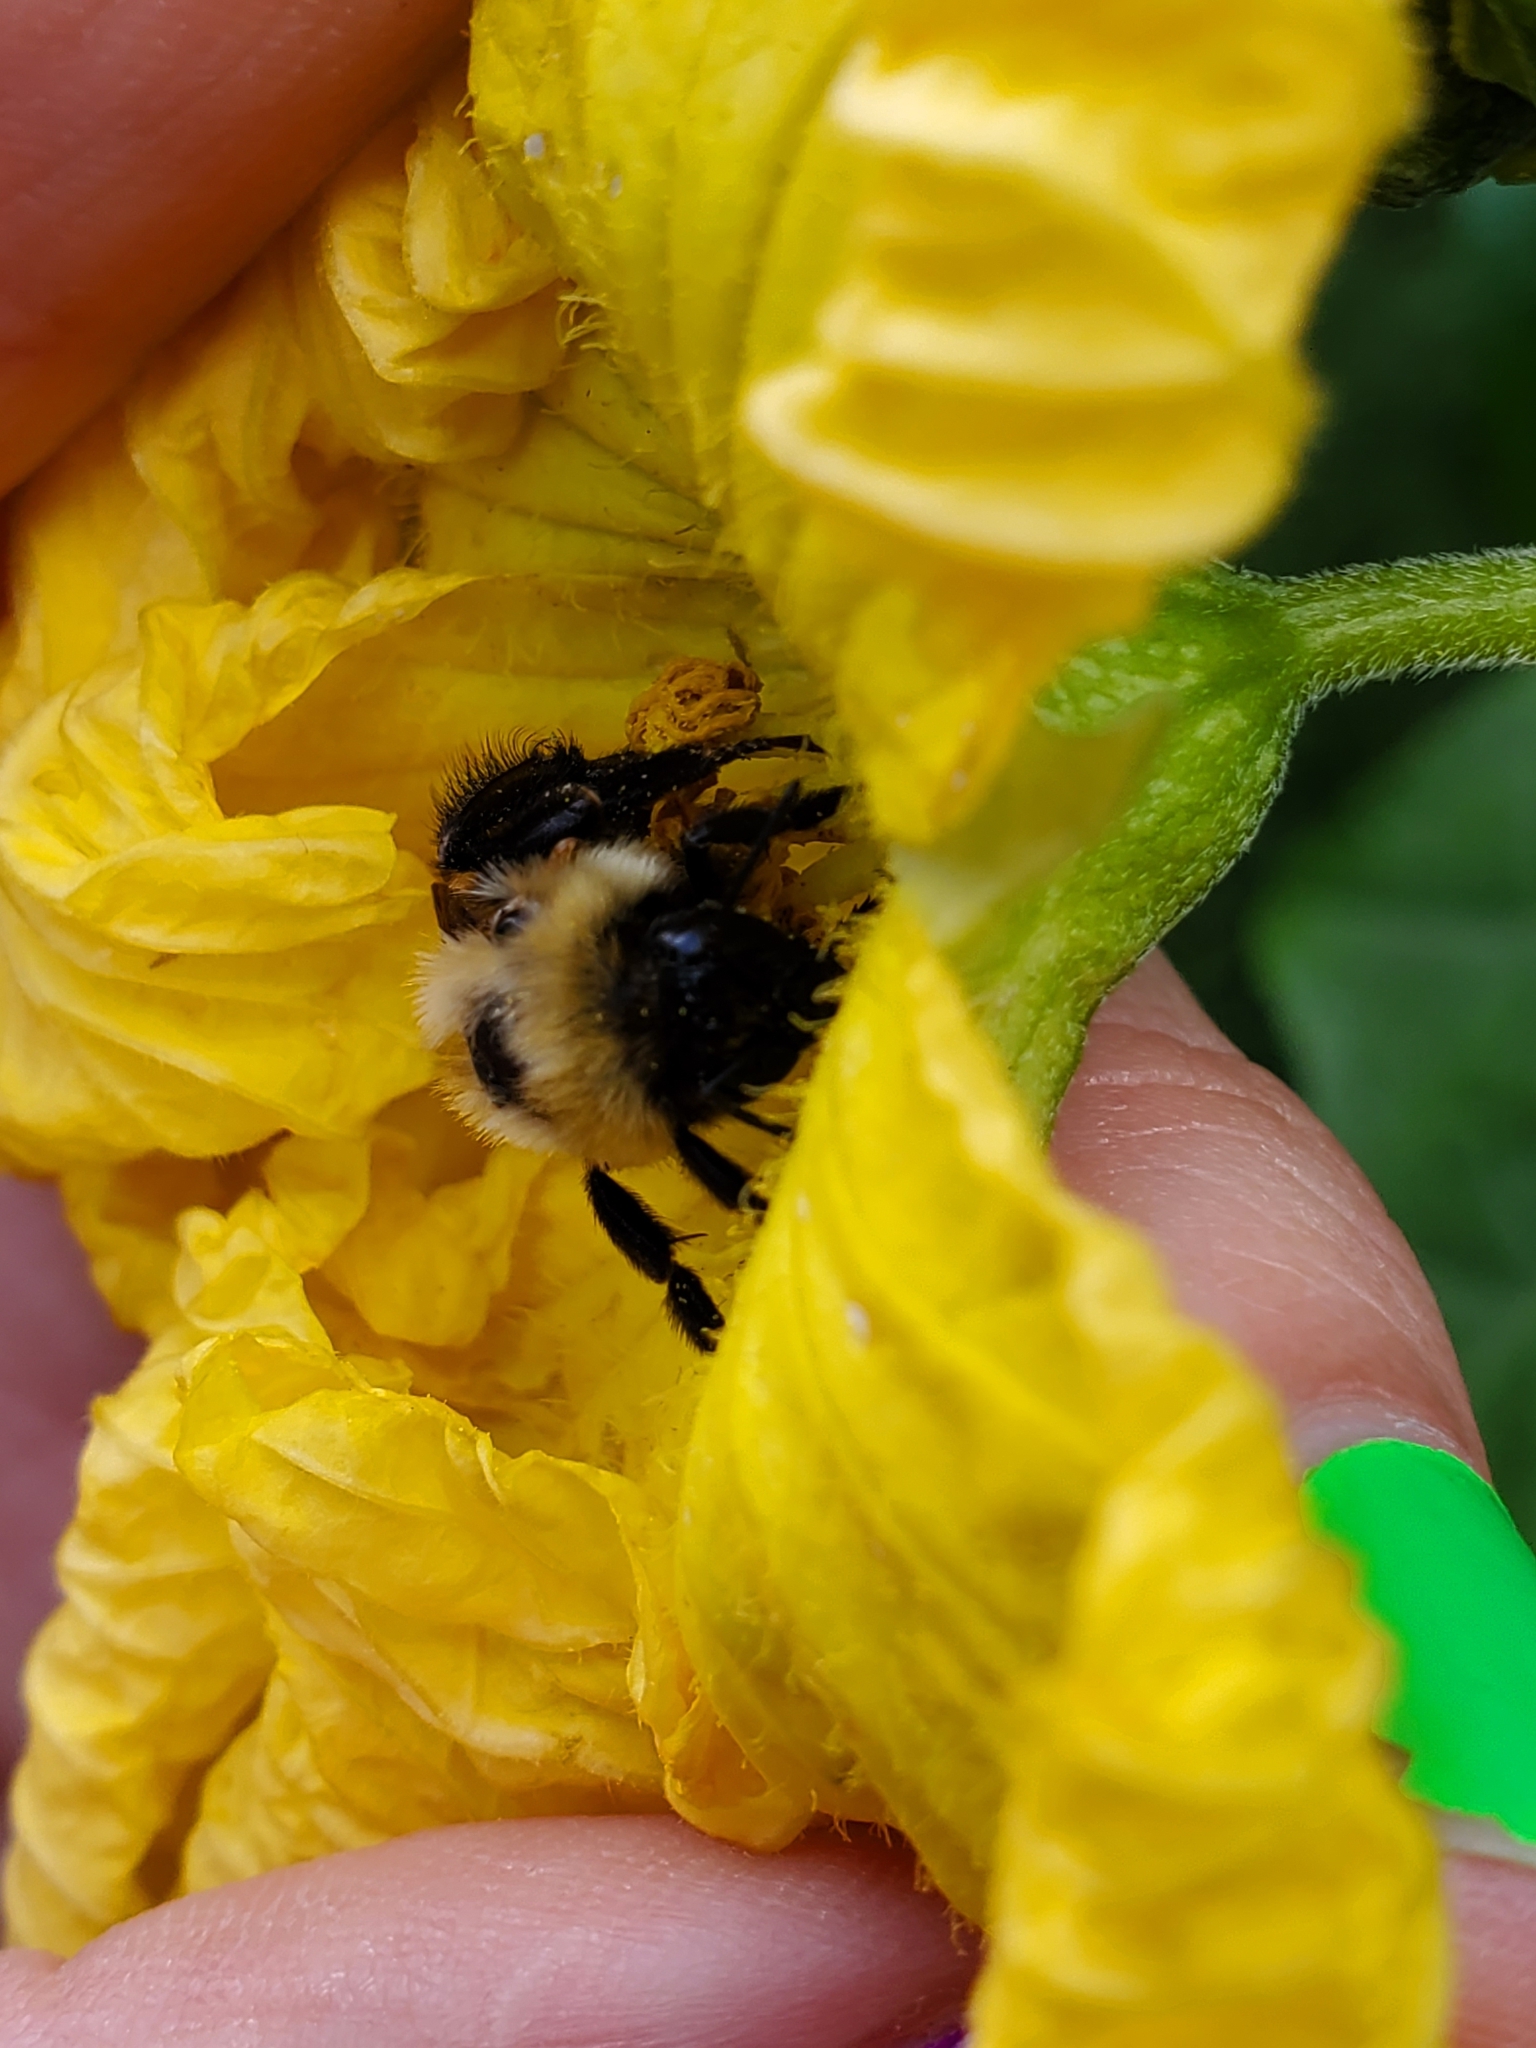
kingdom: Animalia
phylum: Arthropoda
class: Insecta
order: Hymenoptera
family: Apidae
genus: Bombus
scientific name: Bombus griseocollis
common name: Brown-belted bumble bee
